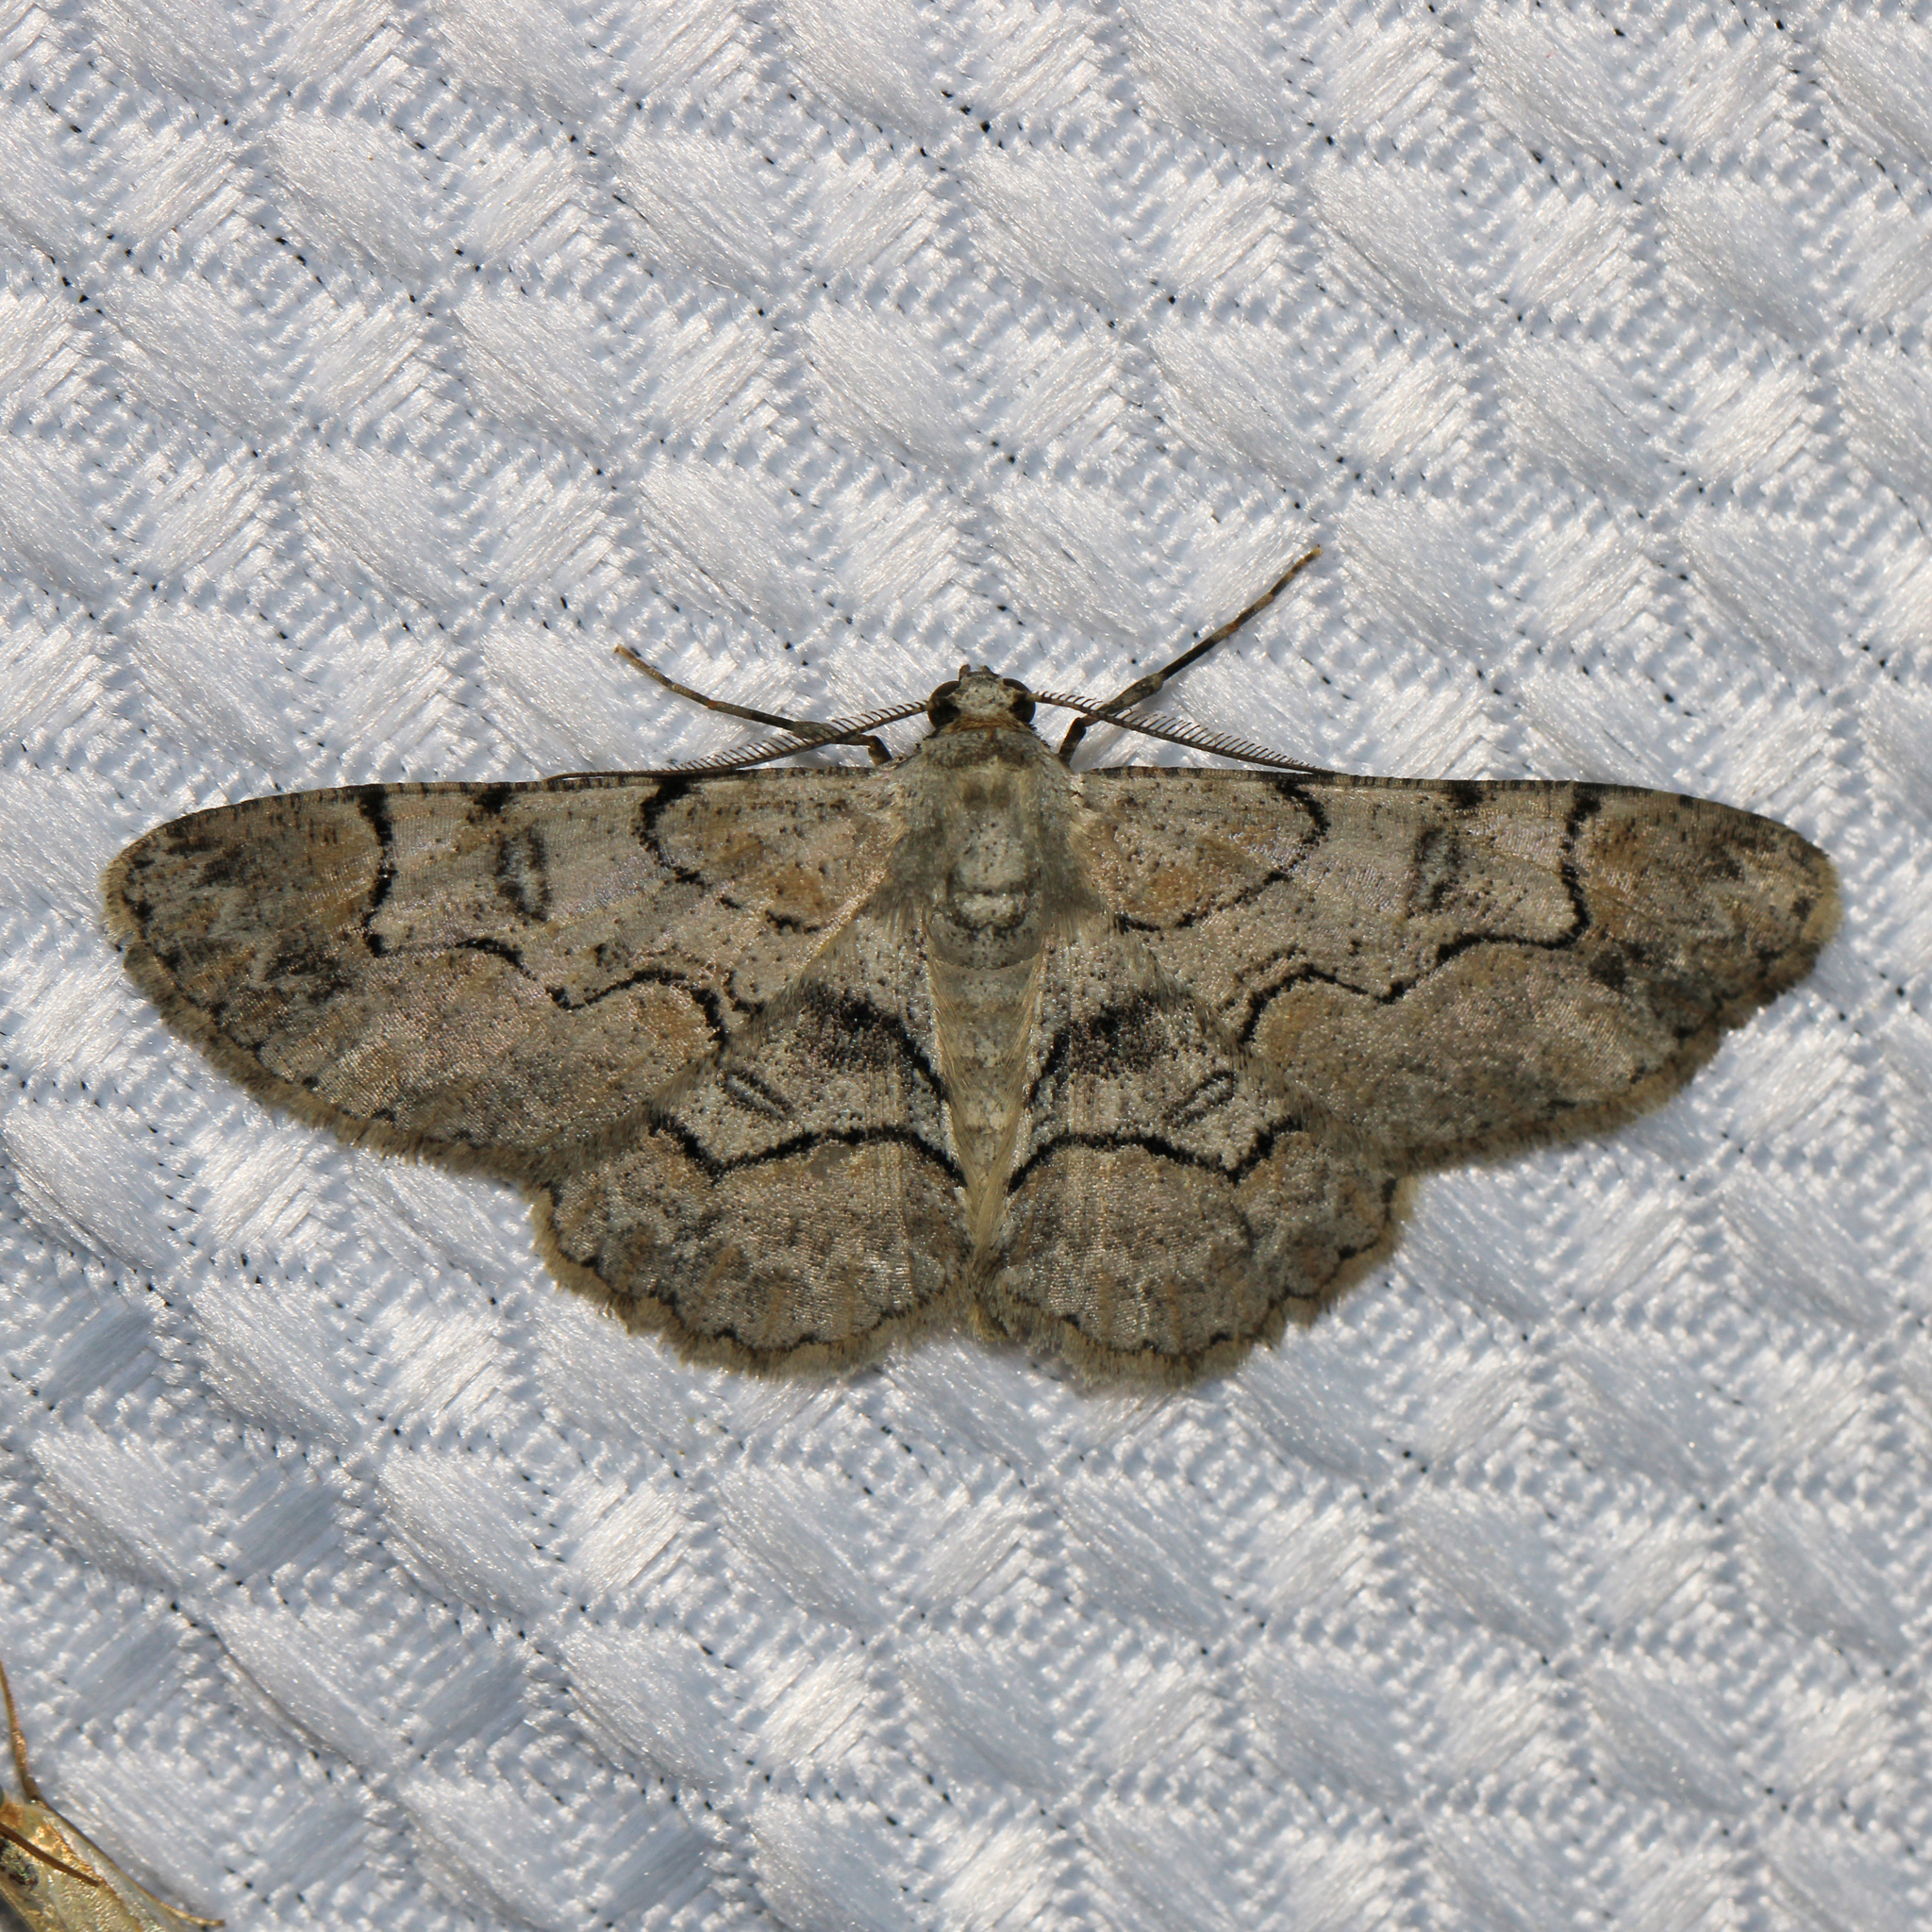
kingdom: Animalia
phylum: Arthropoda
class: Insecta
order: Lepidoptera
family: Geometridae
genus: Iridopsis
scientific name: Iridopsis larvaria
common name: Bent-line gray
